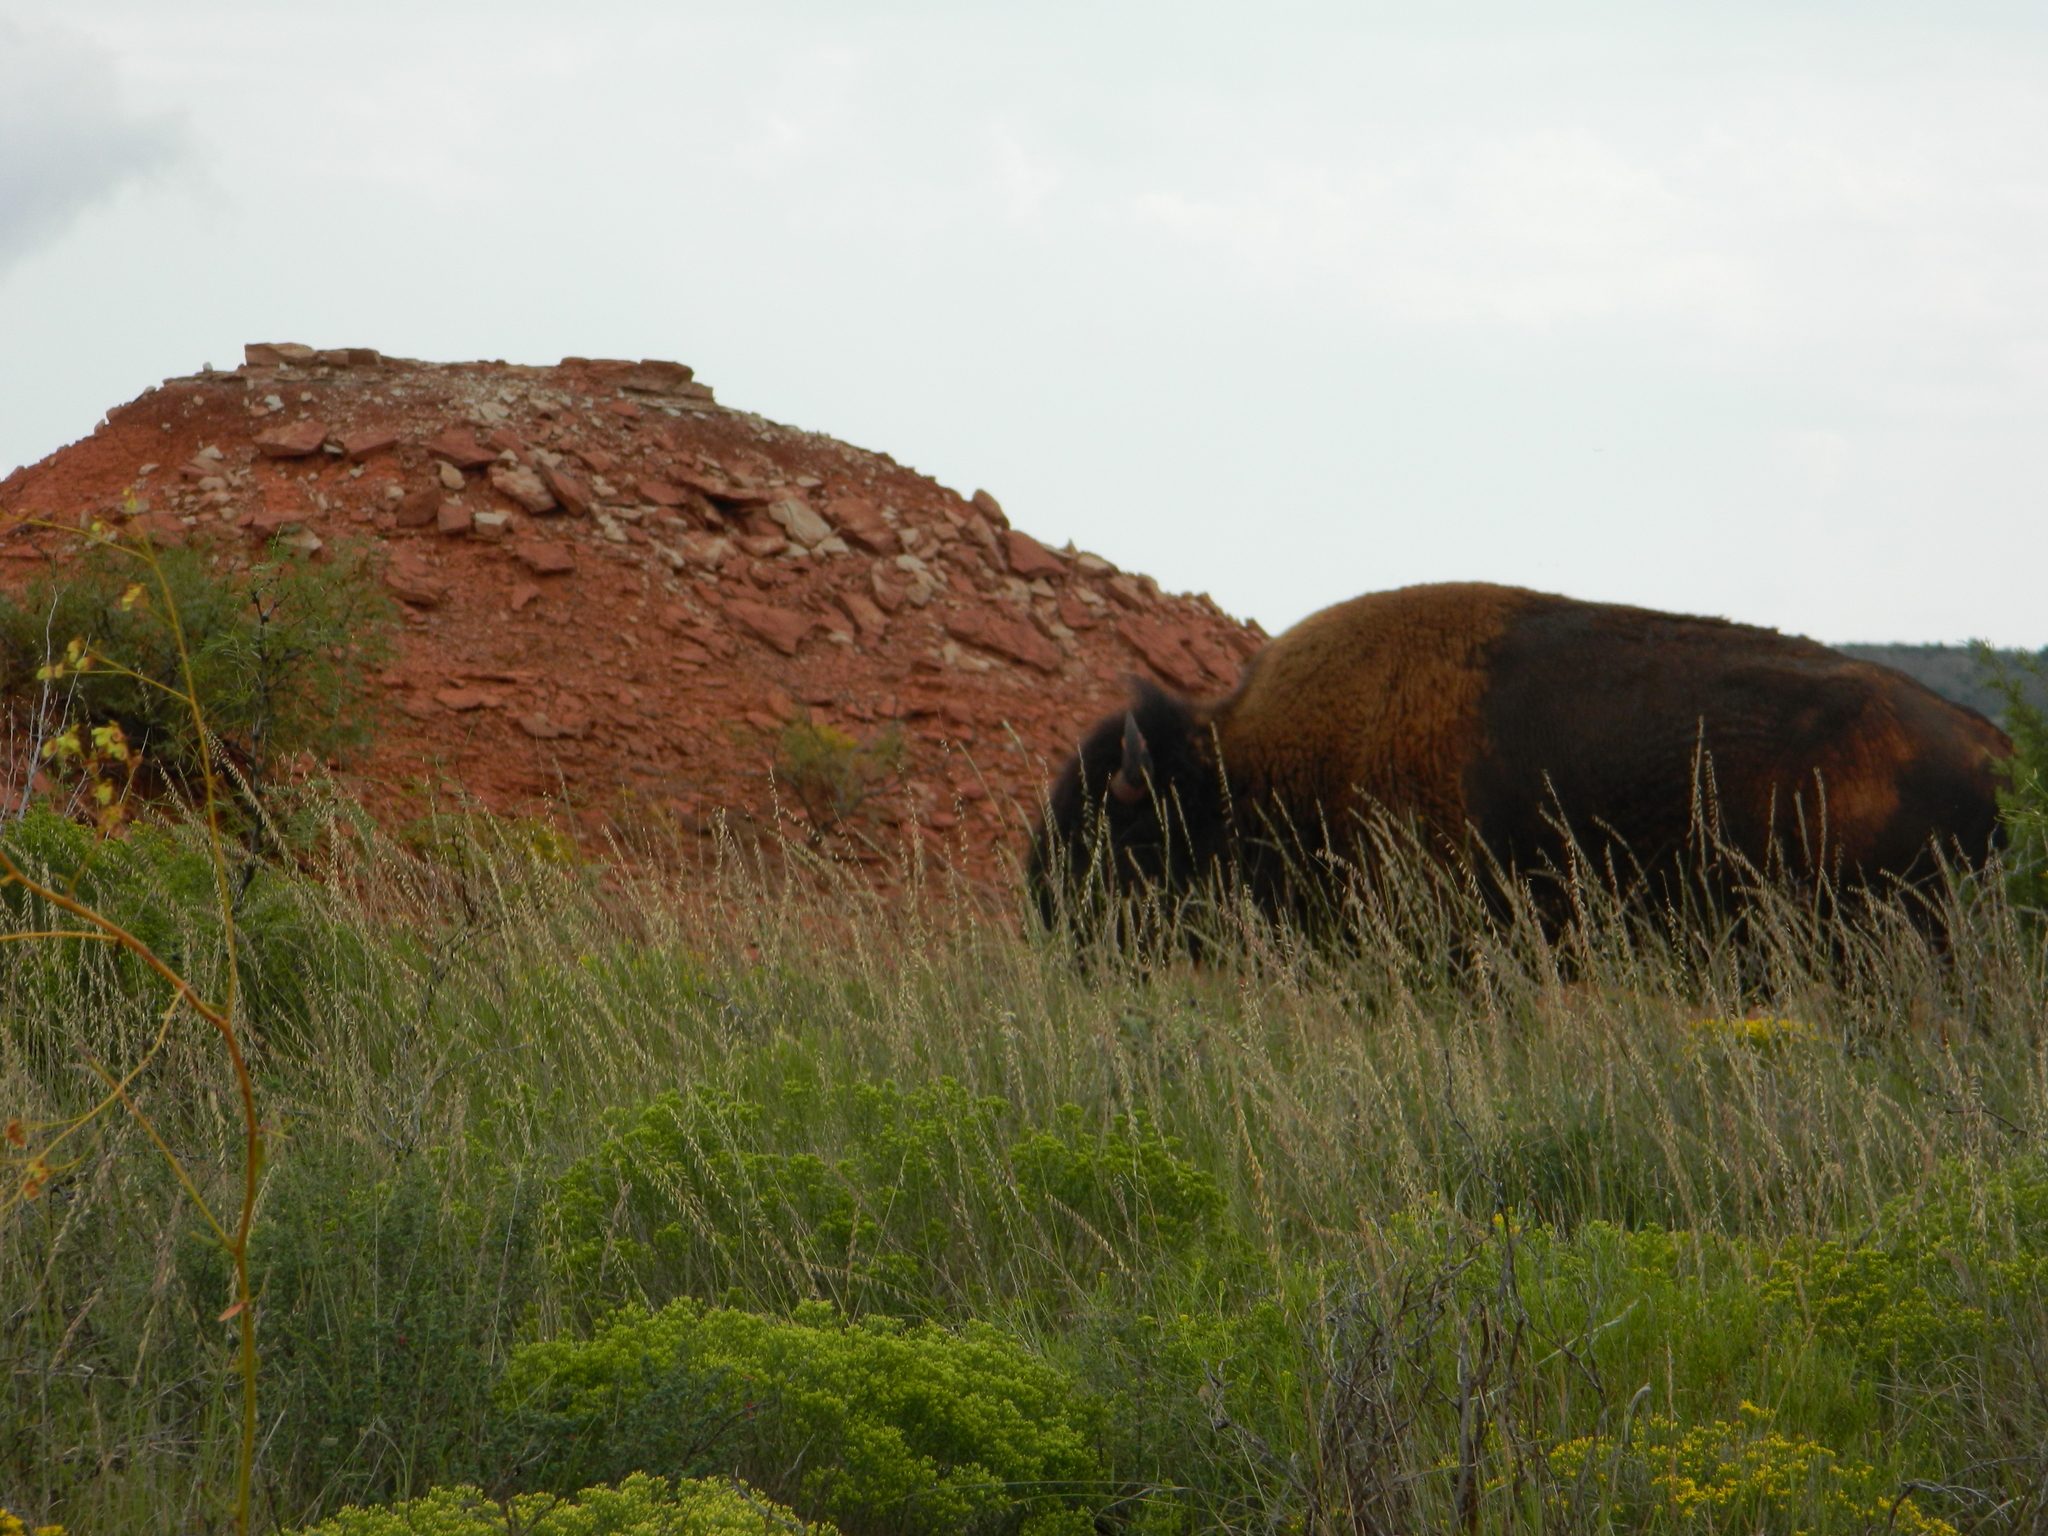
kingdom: Animalia
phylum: Chordata
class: Mammalia
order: Artiodactyla
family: Bovidae
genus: Bison
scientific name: Bison bison
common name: American bison
